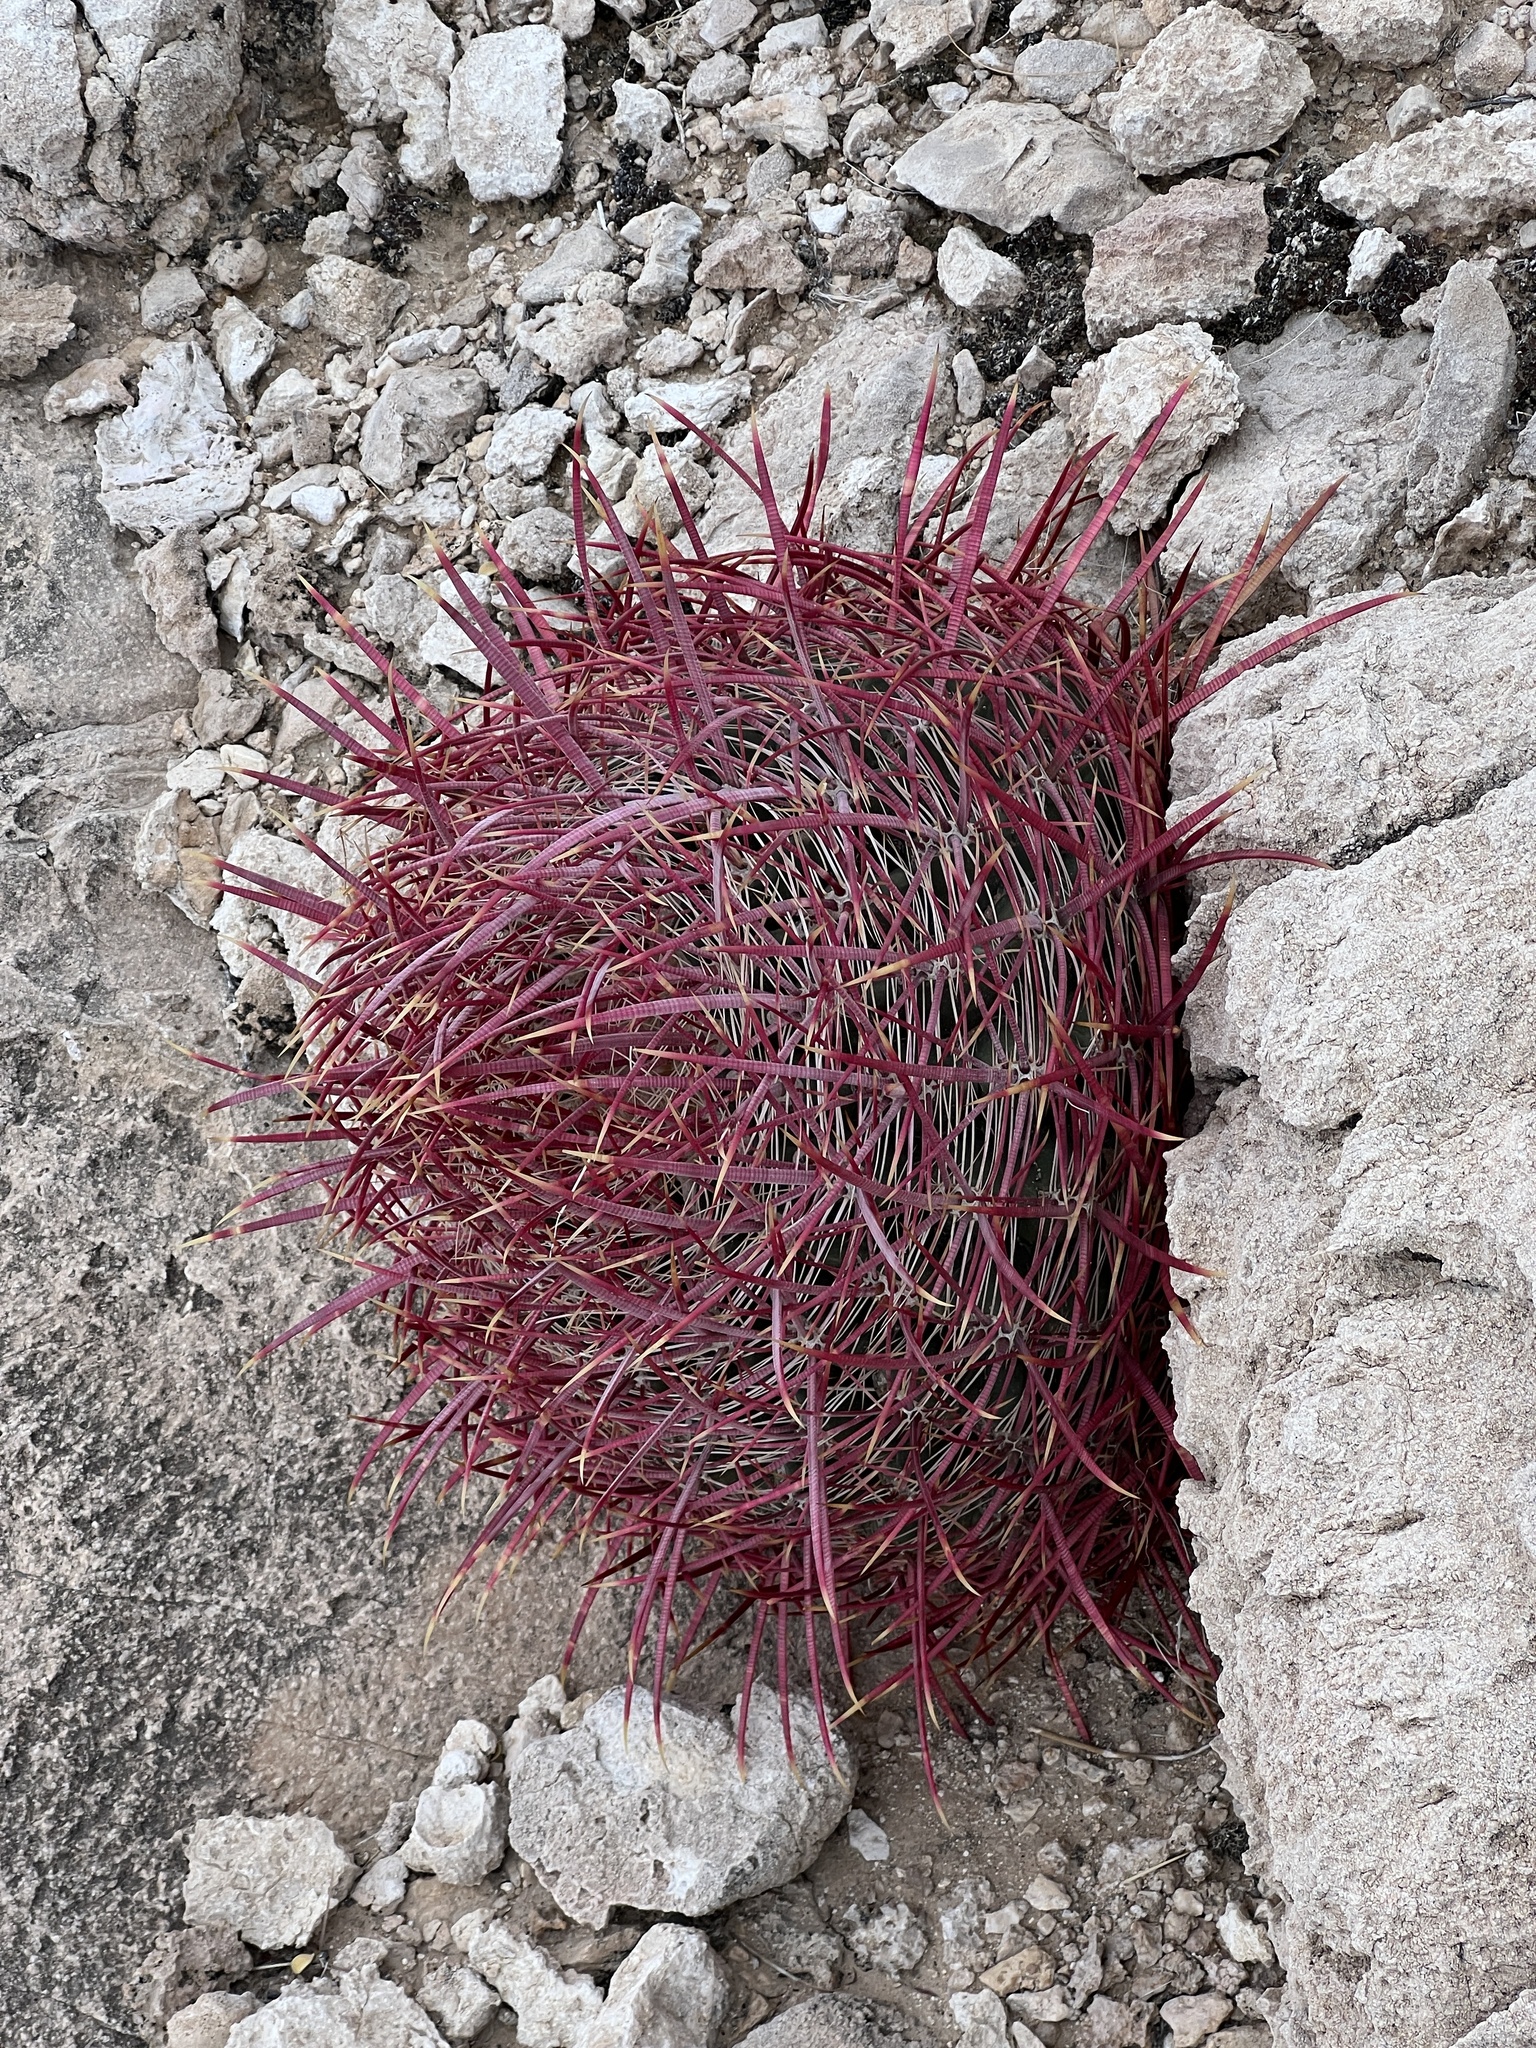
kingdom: Plantae
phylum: Tracheophyta
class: Magnoliopsida
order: Caryophyllales
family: Cactaceae
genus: Ferocactus
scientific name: Ferocactus cylindraceus
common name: California barrel cactus
